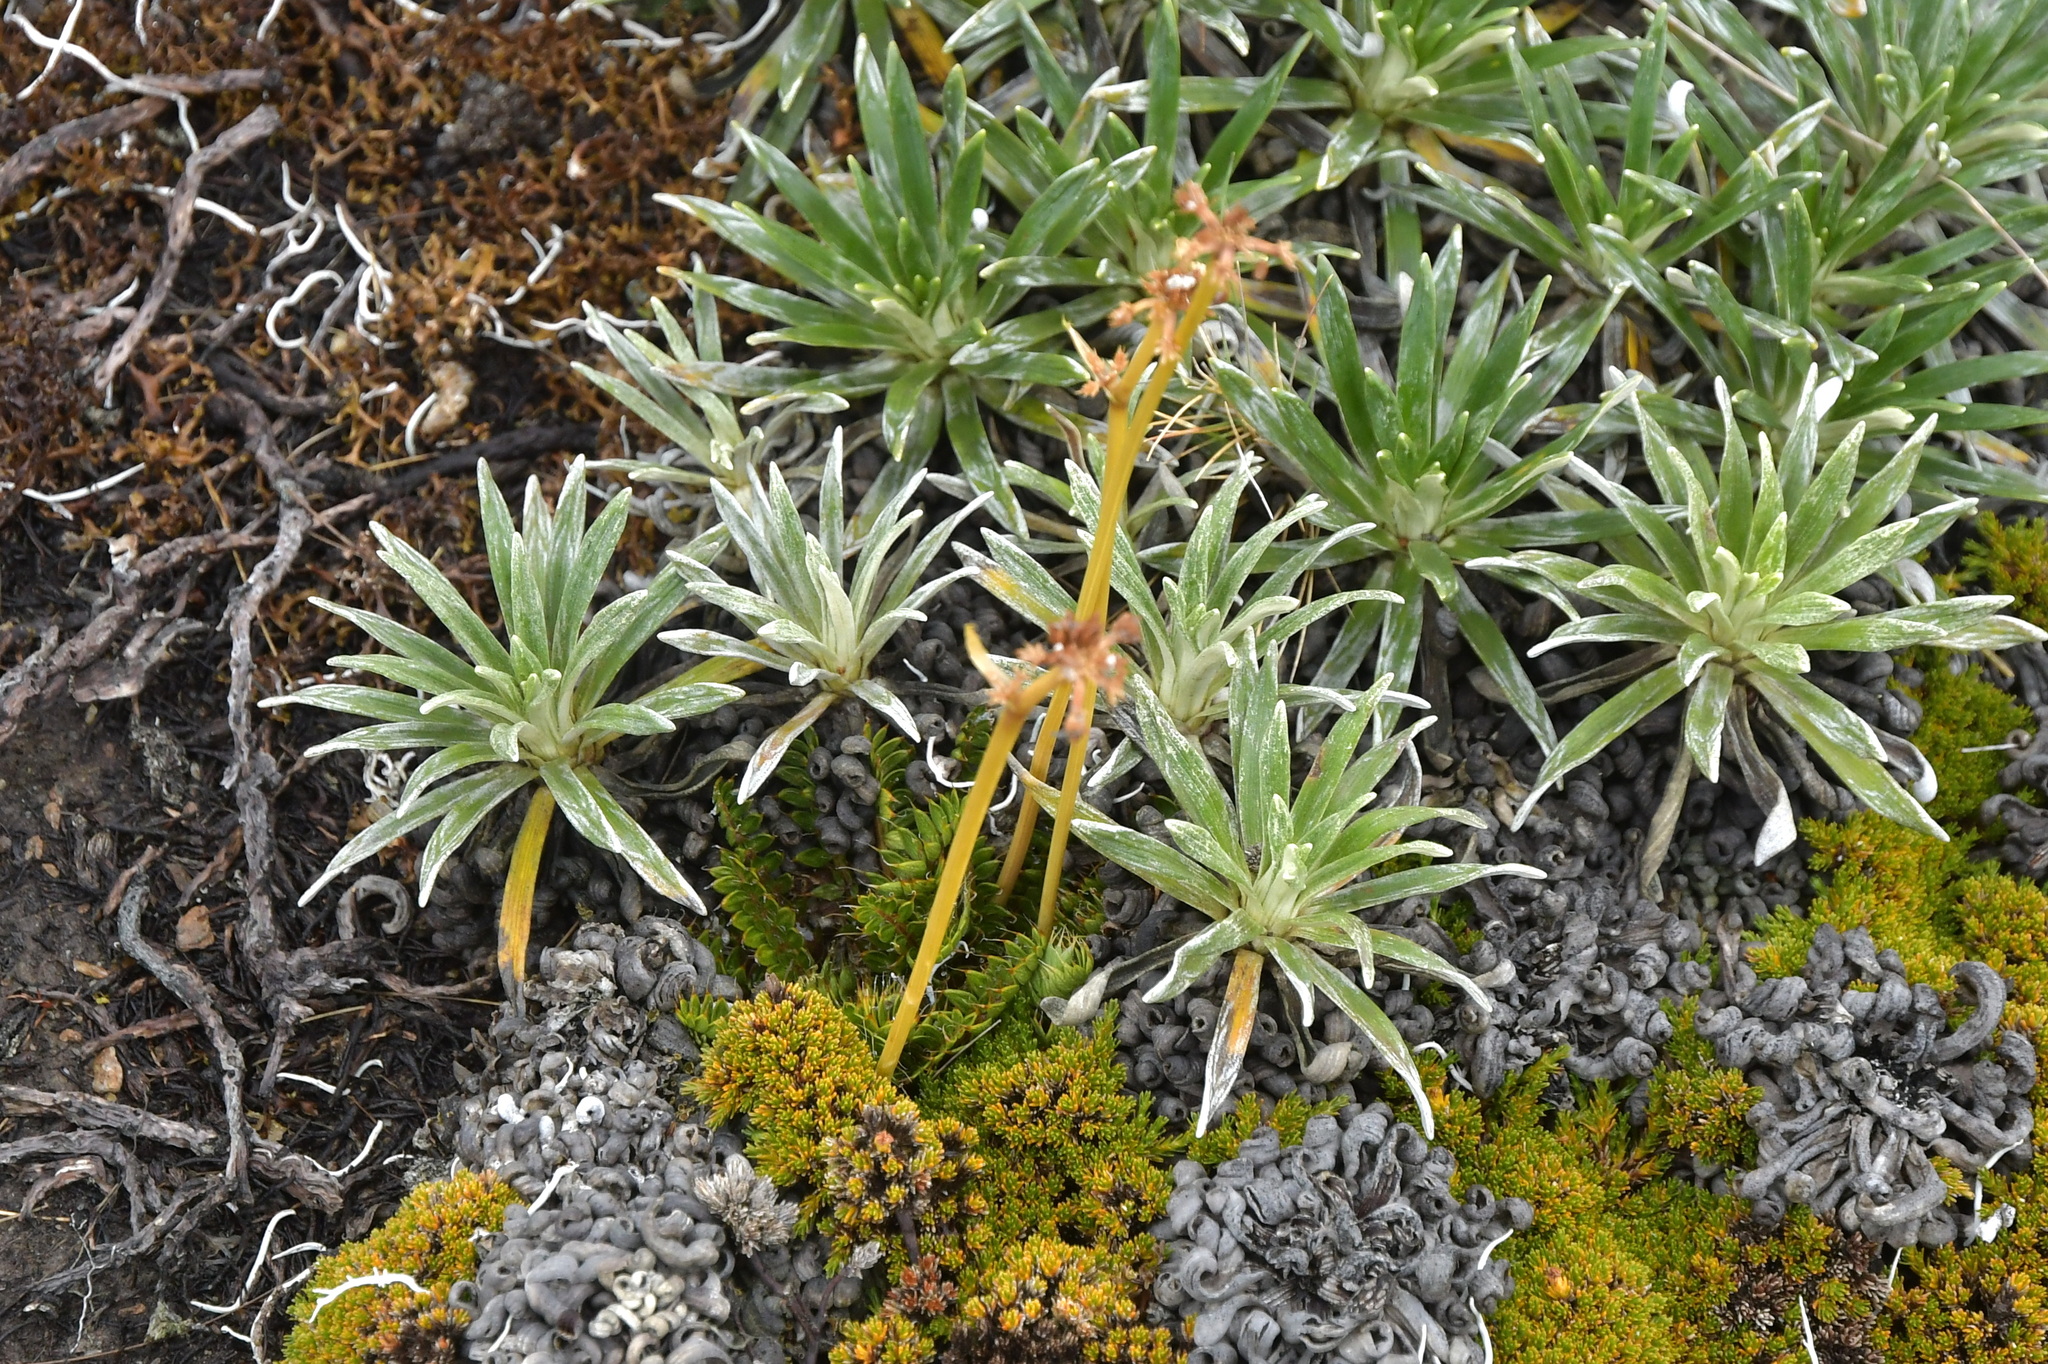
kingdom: Plantae
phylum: Tracheophyta
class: Magnoliopsida
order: Apiales
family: Apiaceae
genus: Anisotome
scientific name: Anisotome flexuosa
